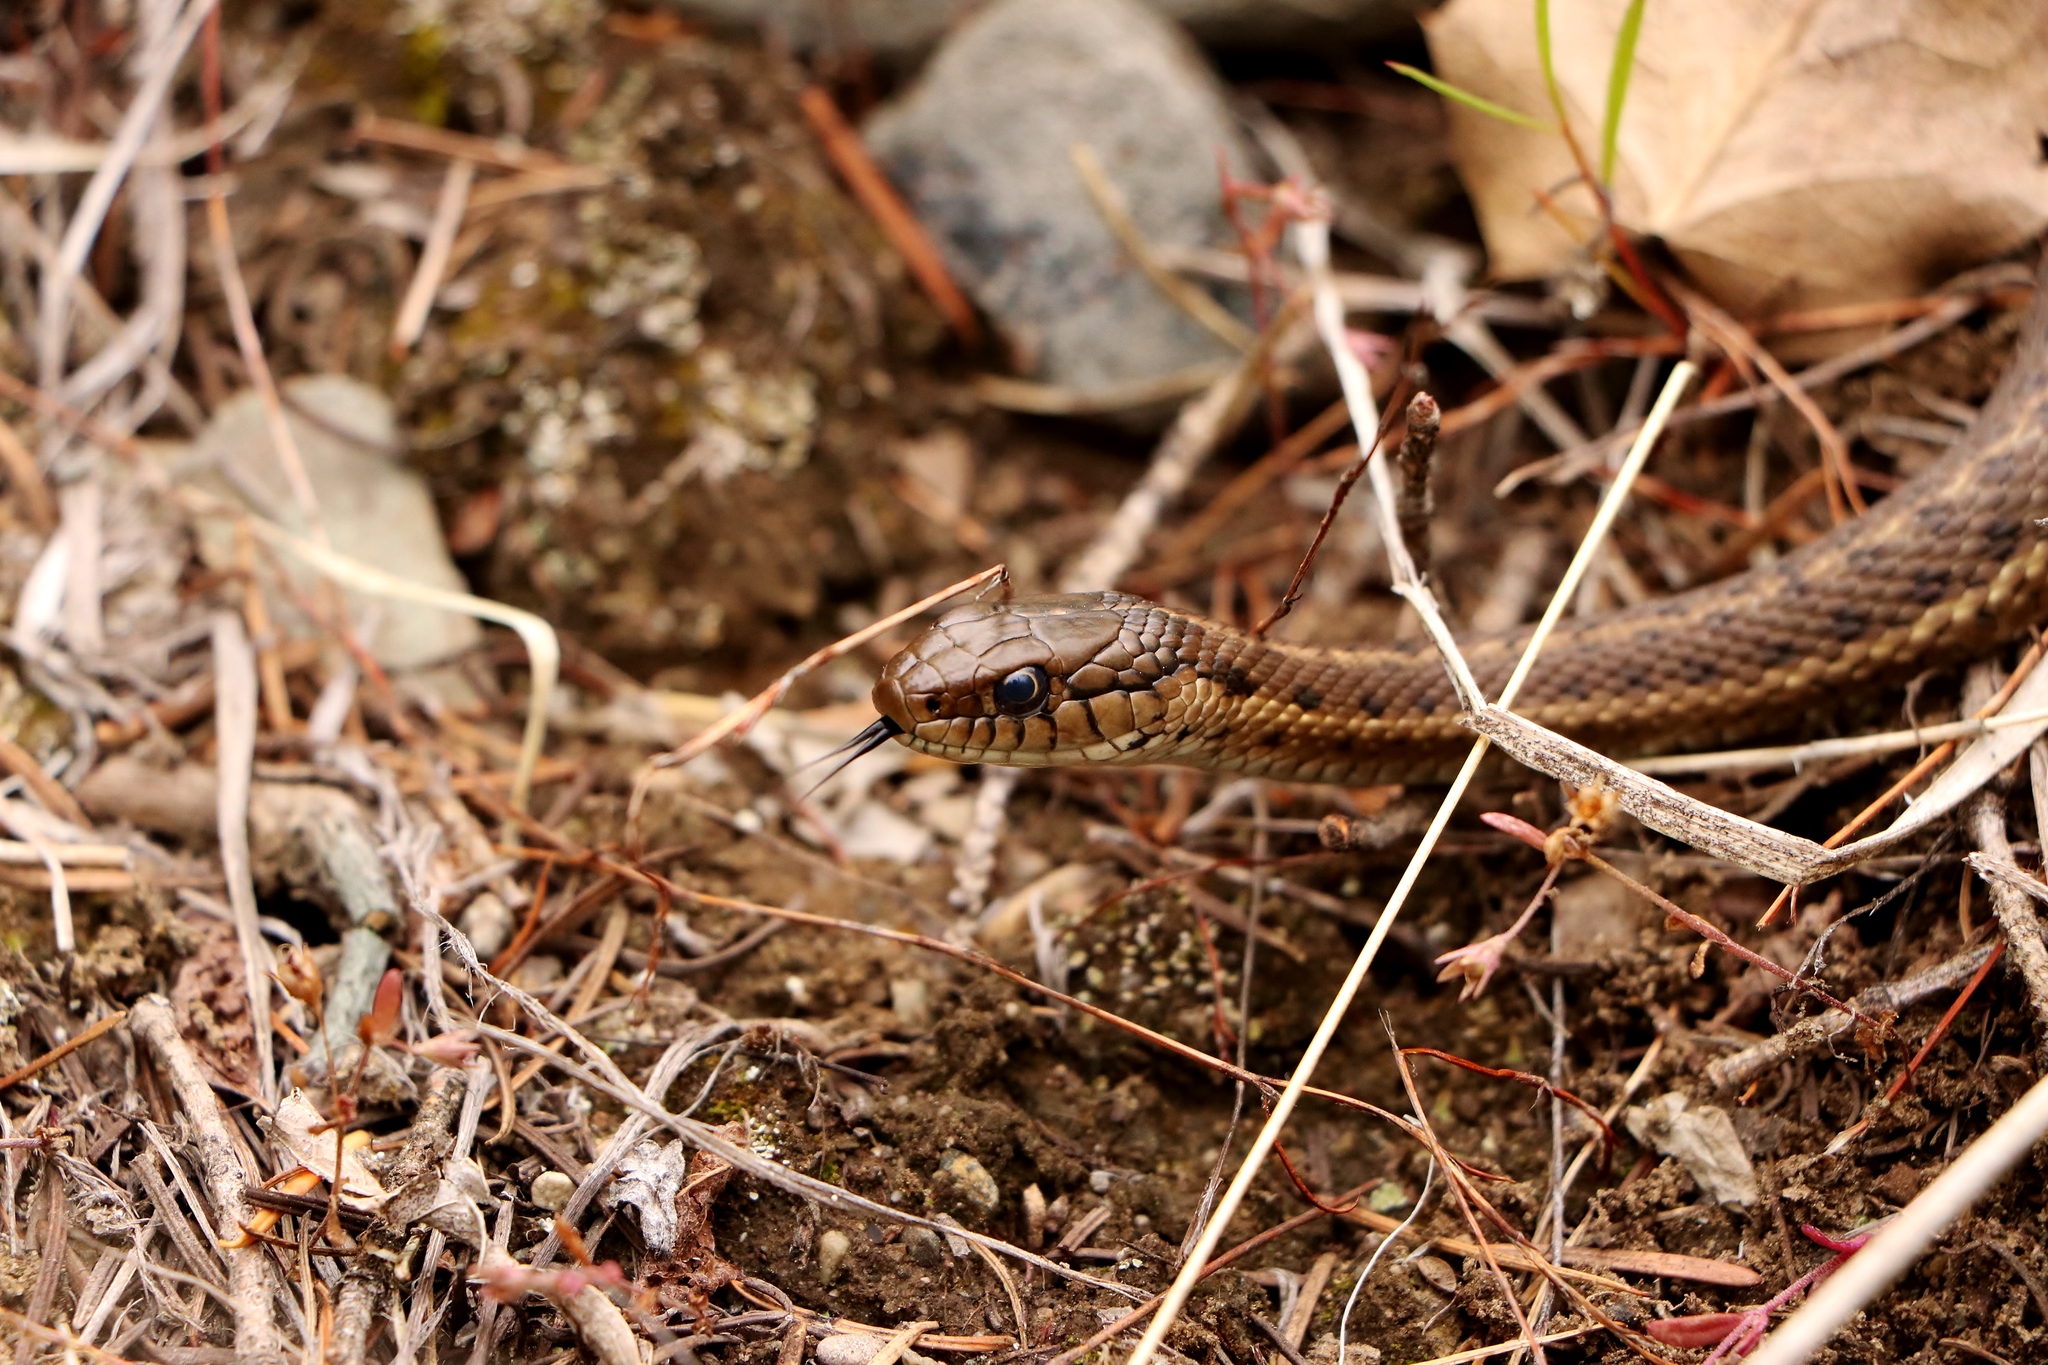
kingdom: Animalia
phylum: Chordata
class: Squamata
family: Colubridae
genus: Thamnophis
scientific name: Thamnophis elegans
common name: Western terrestrial garter snake
